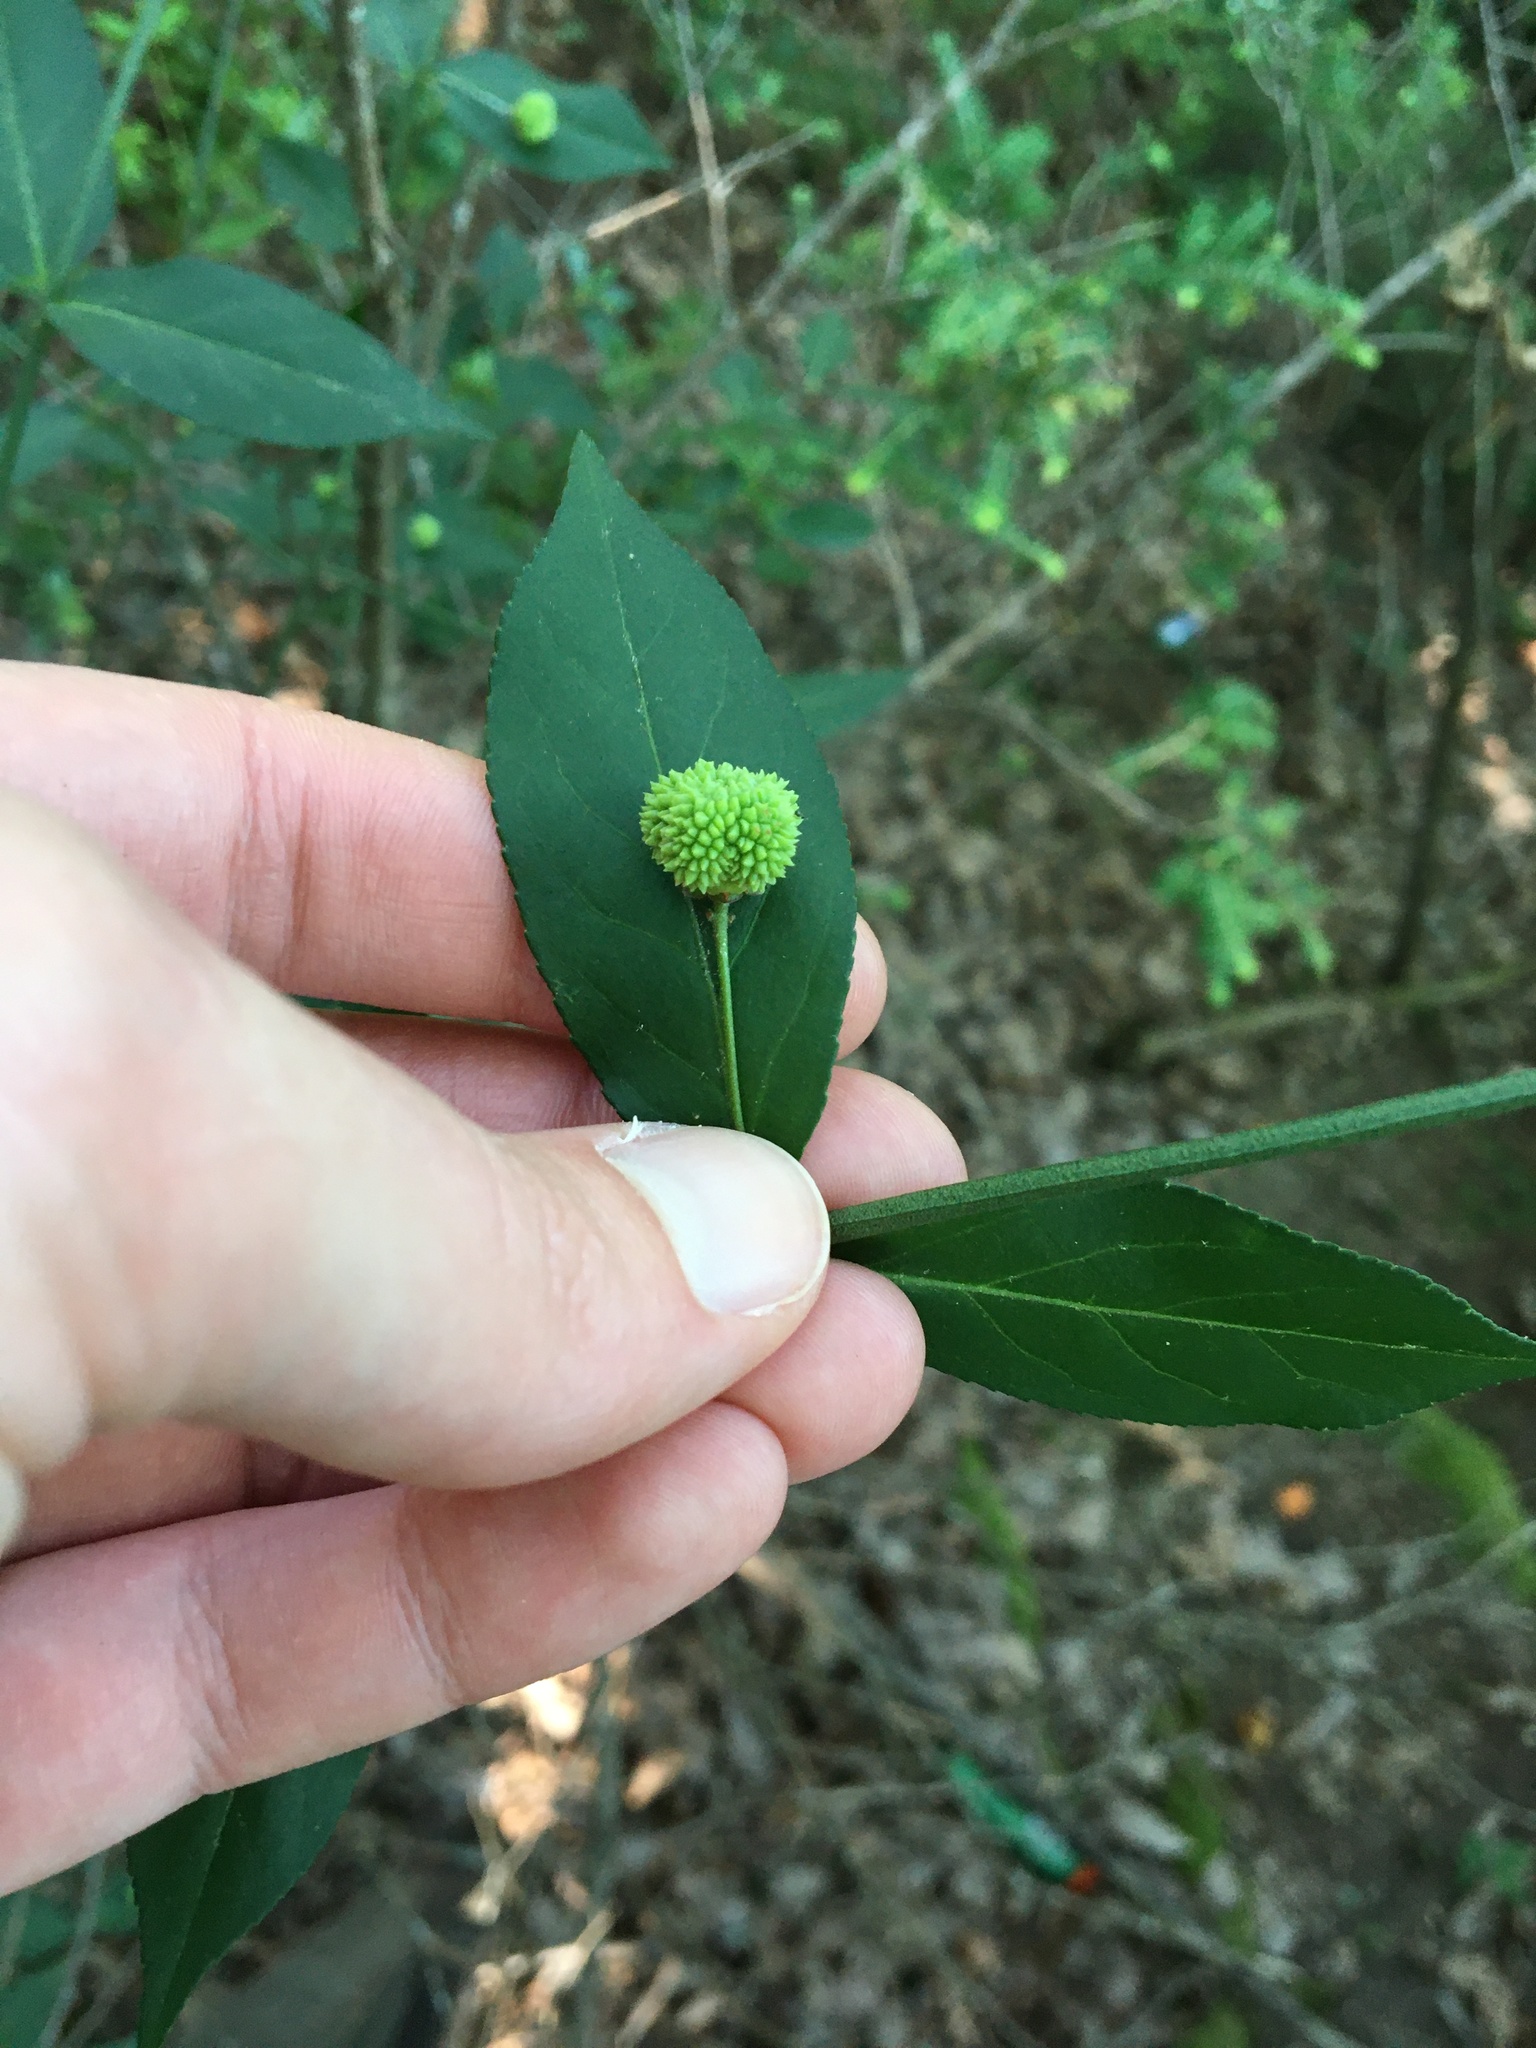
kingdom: Plantae
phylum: Tracheophyta
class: Magnoliopsida
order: Celastrales
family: Celastraceae
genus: Euonymus
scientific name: Euonymus americanus
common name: Bursting-heart
